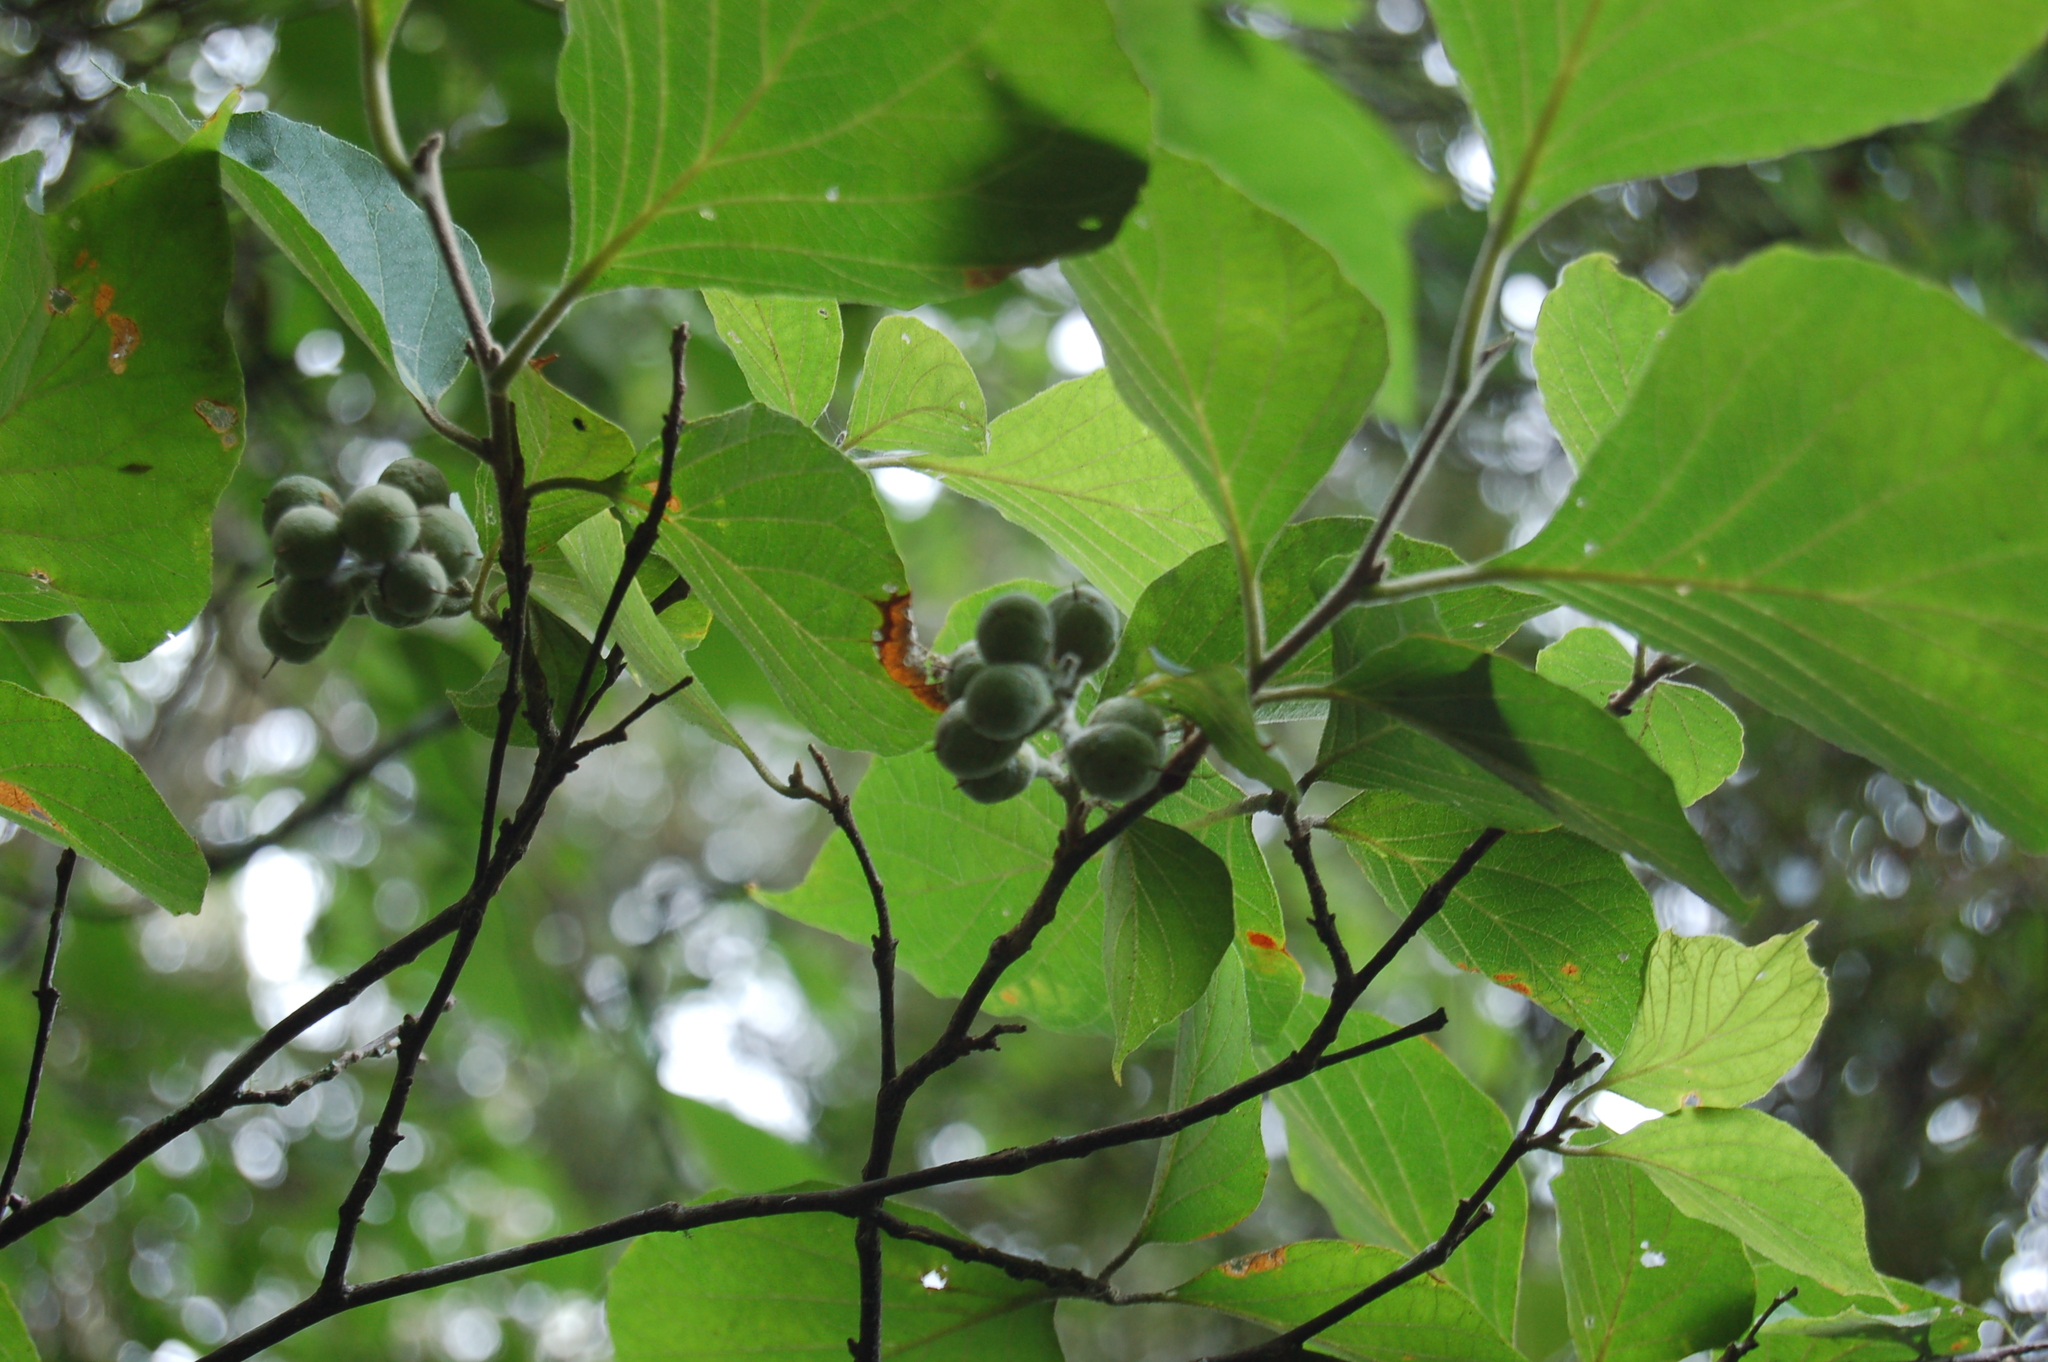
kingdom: Plantae
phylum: Tracheophyta
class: Magnoliopsida
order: Ericales
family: Styracaceae
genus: Styrax
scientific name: Styrax glabrescens
